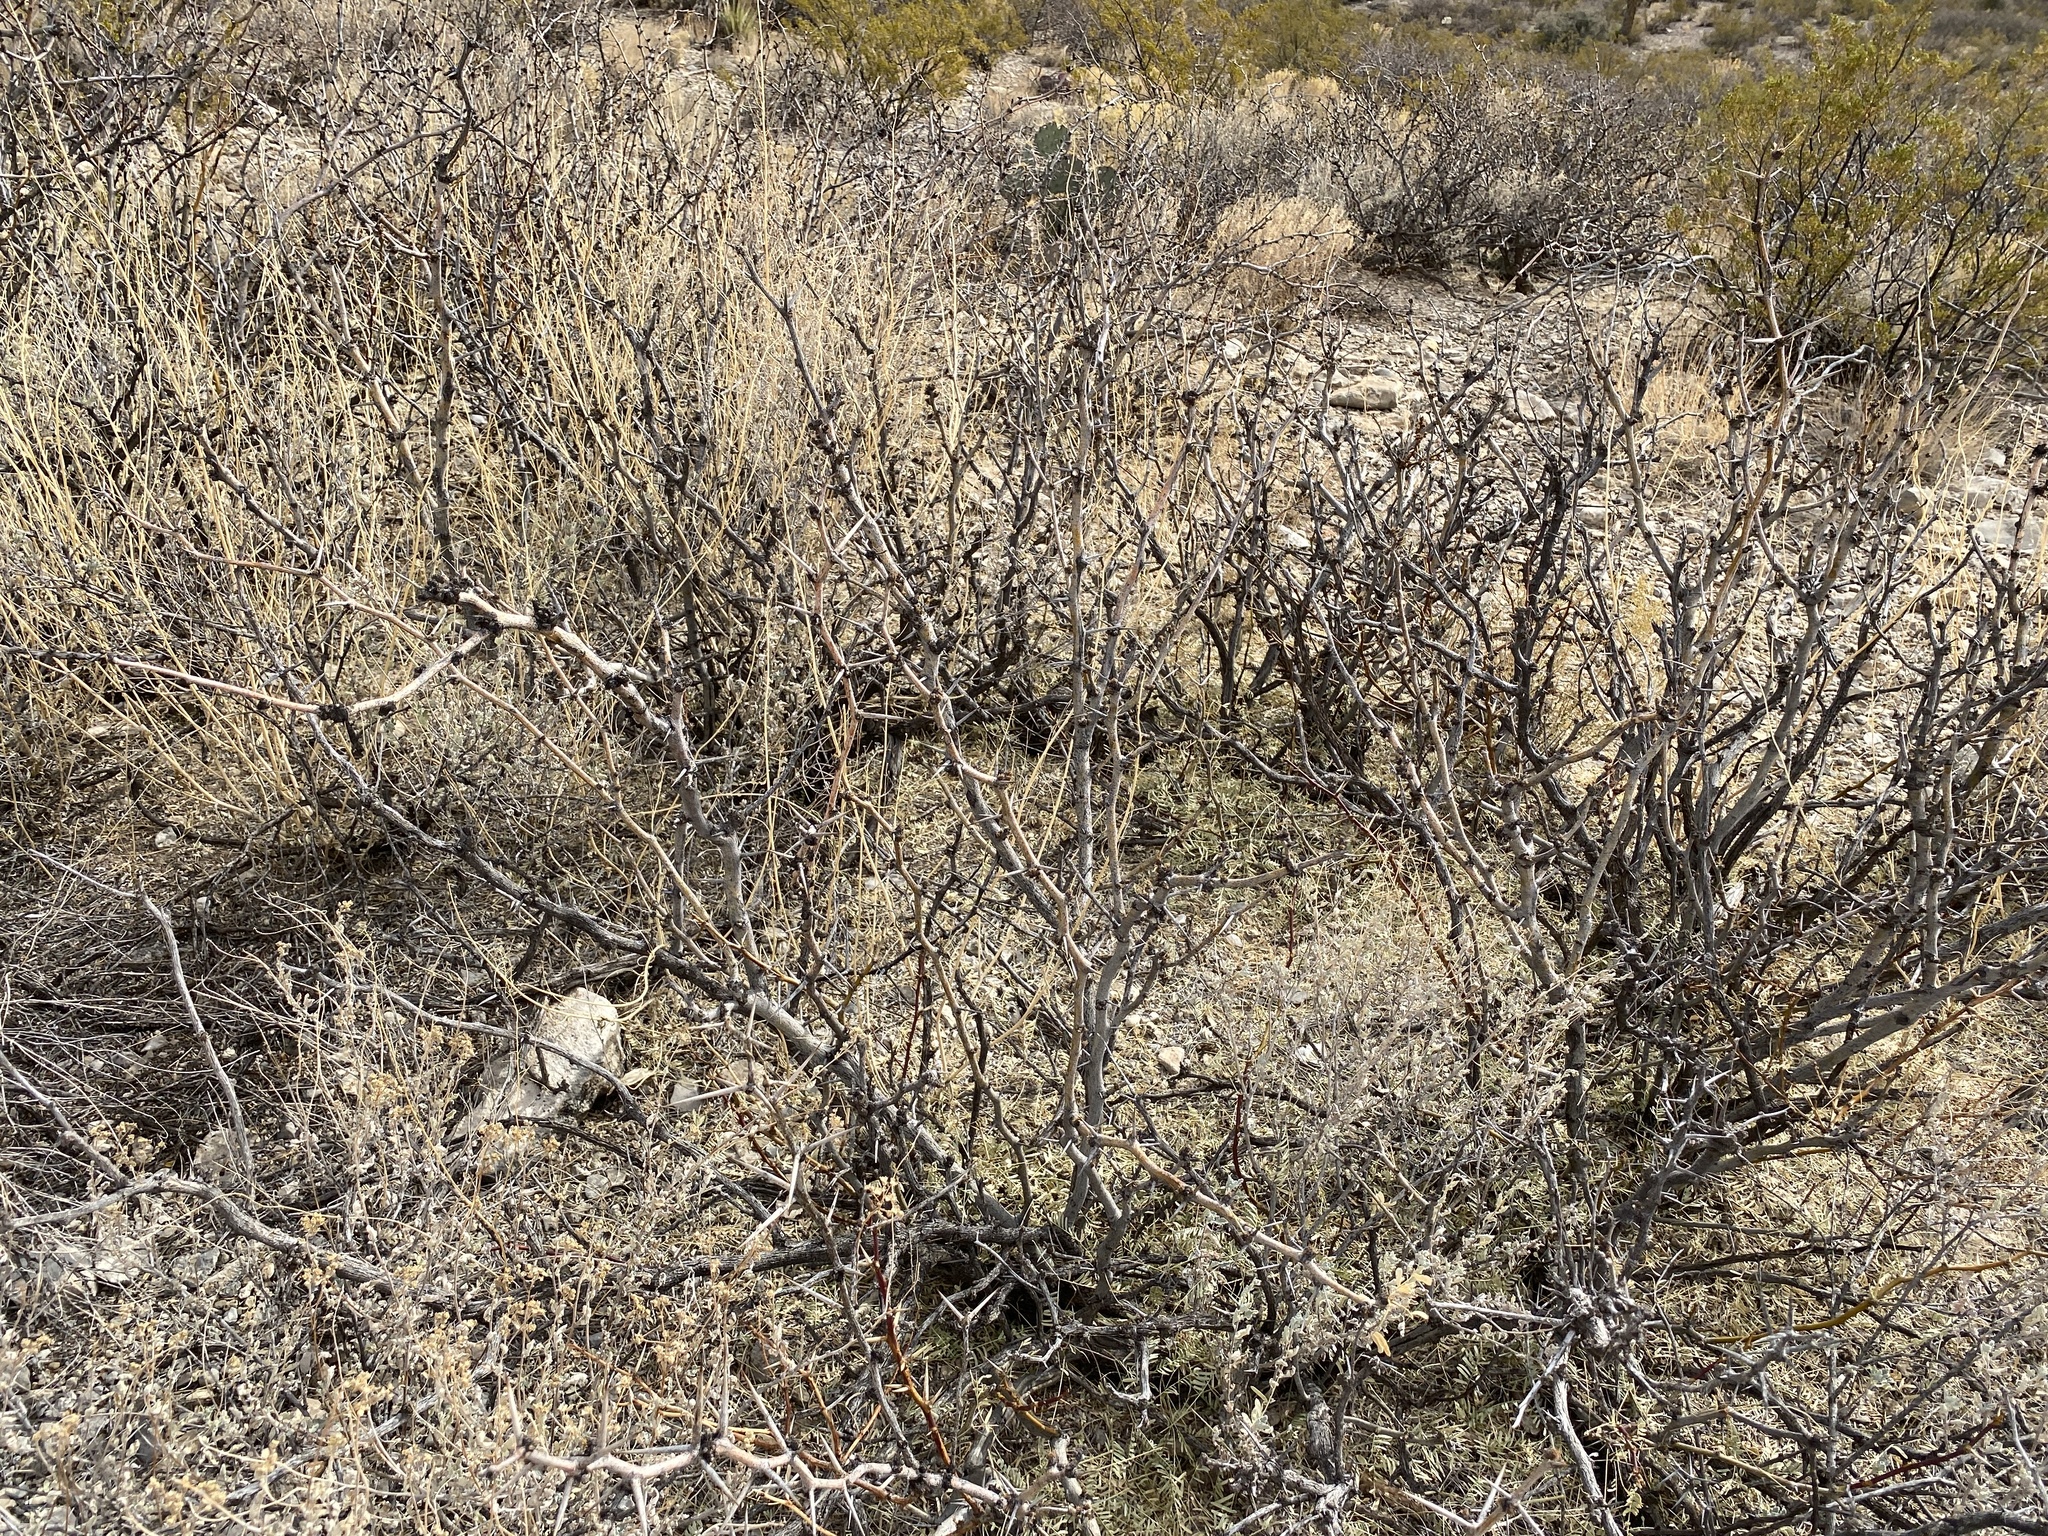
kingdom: Plantae
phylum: Tracheophyta
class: Magnoliopsida
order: Fabales
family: Fabaceae
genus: Prosopis
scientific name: Prosopis glandulosa
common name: Honey mesquite
